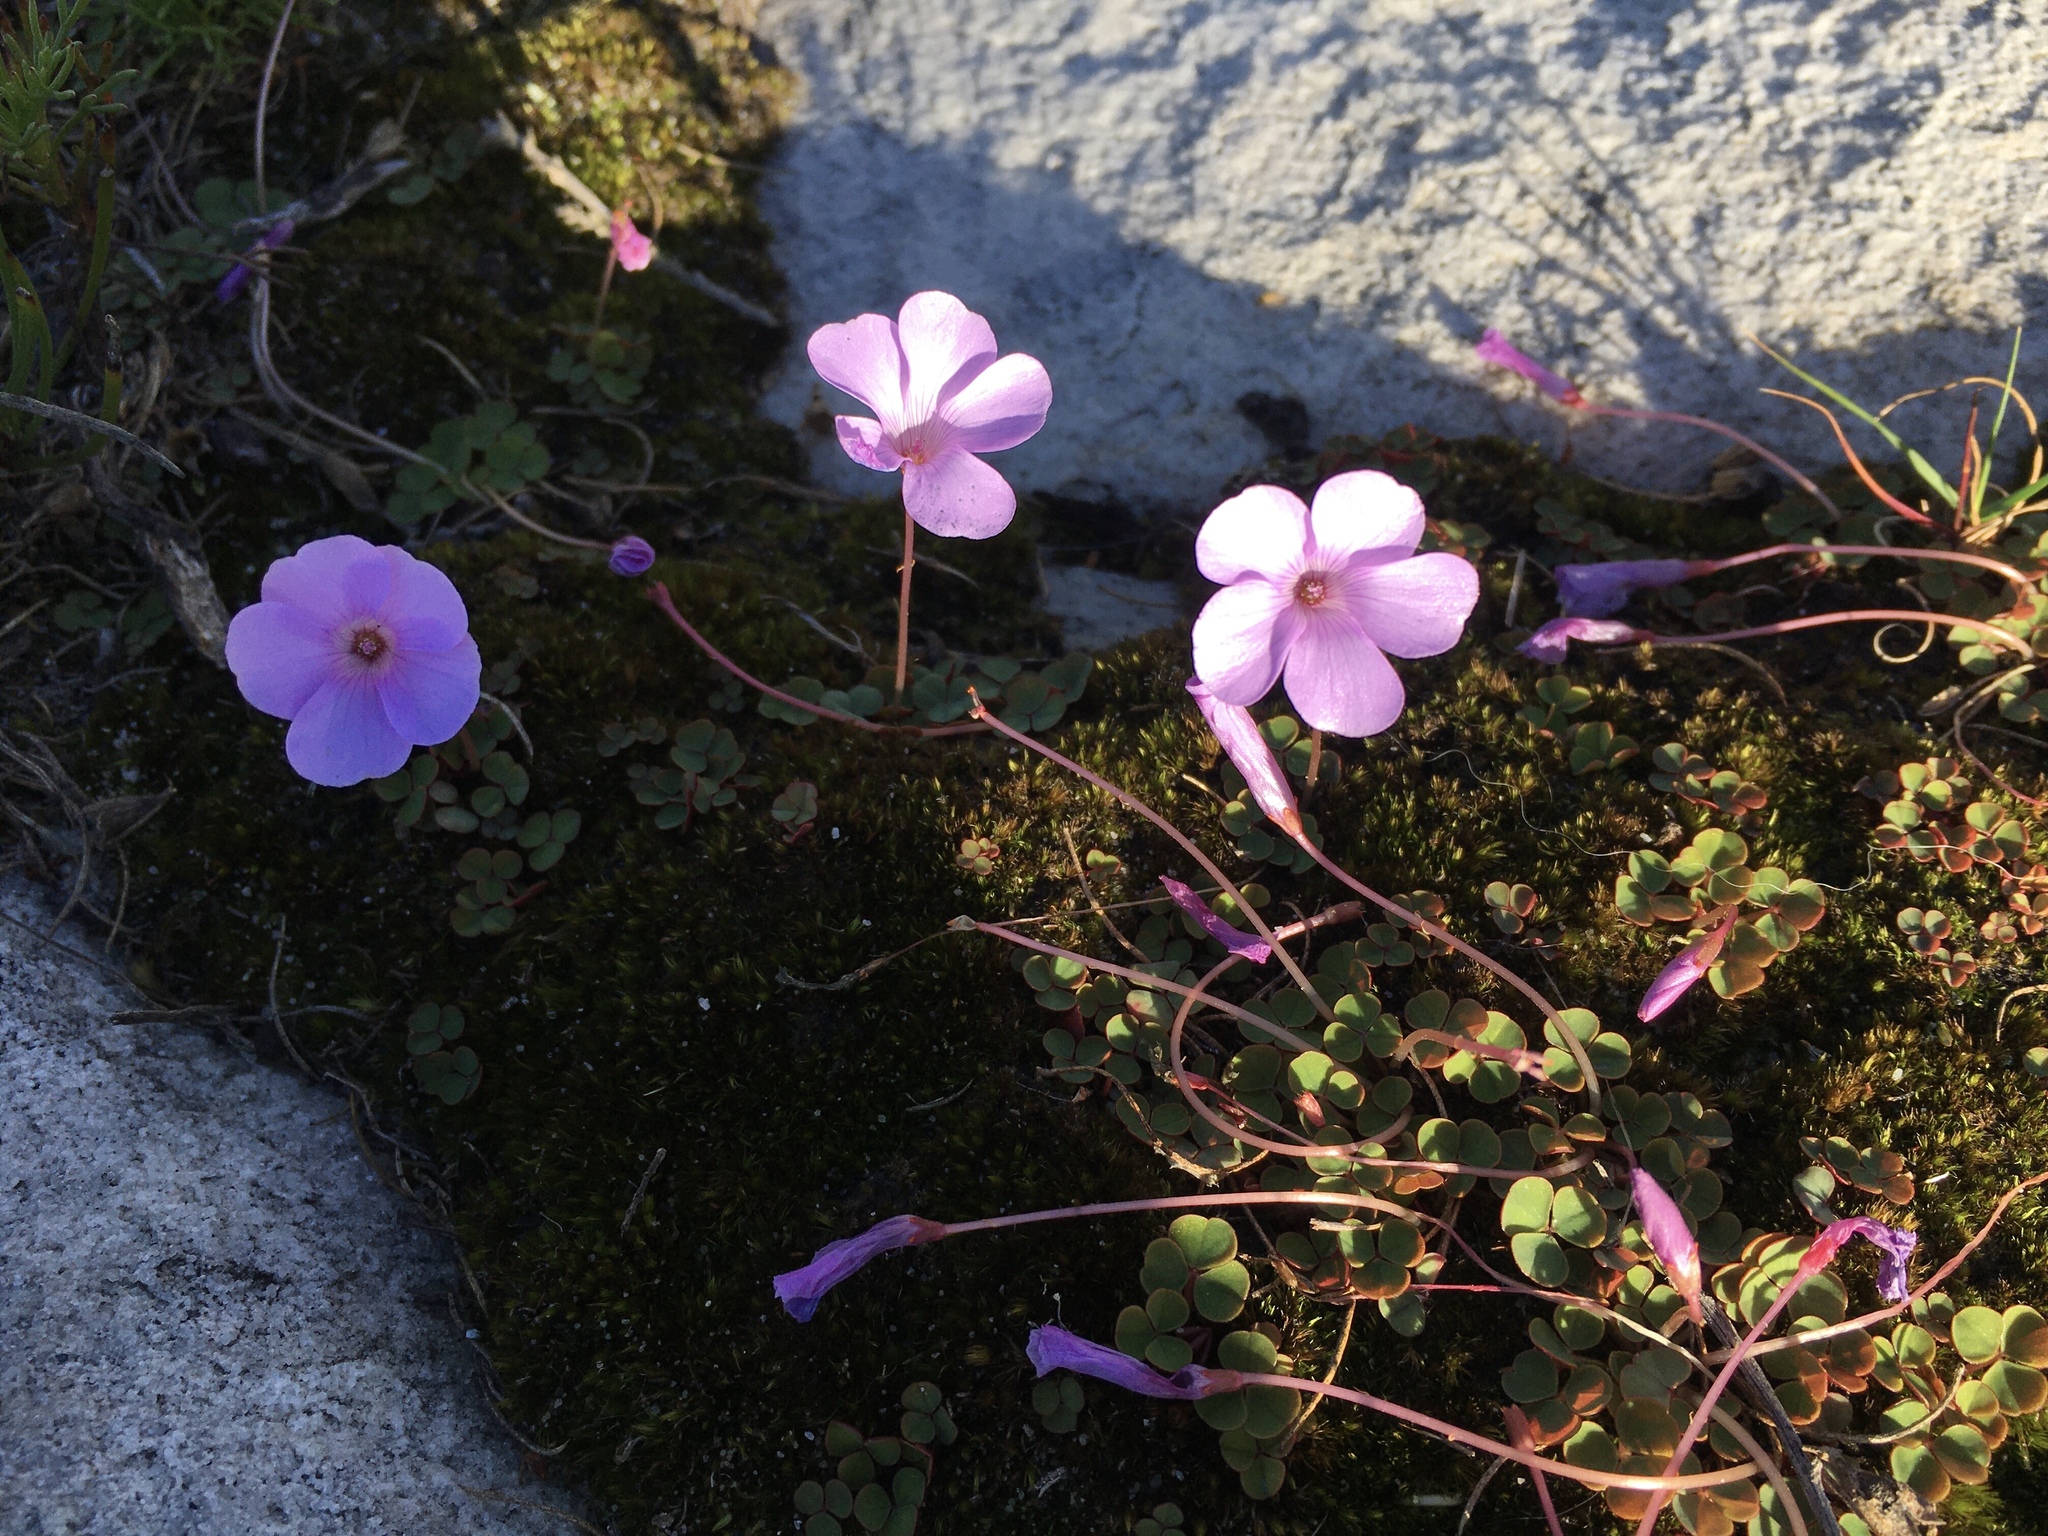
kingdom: Plantae
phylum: Tracheophyta
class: Magnoliopsida
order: Oxalidales
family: Oxalidaceae
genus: Oxalis
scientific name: Oxalis commutata
